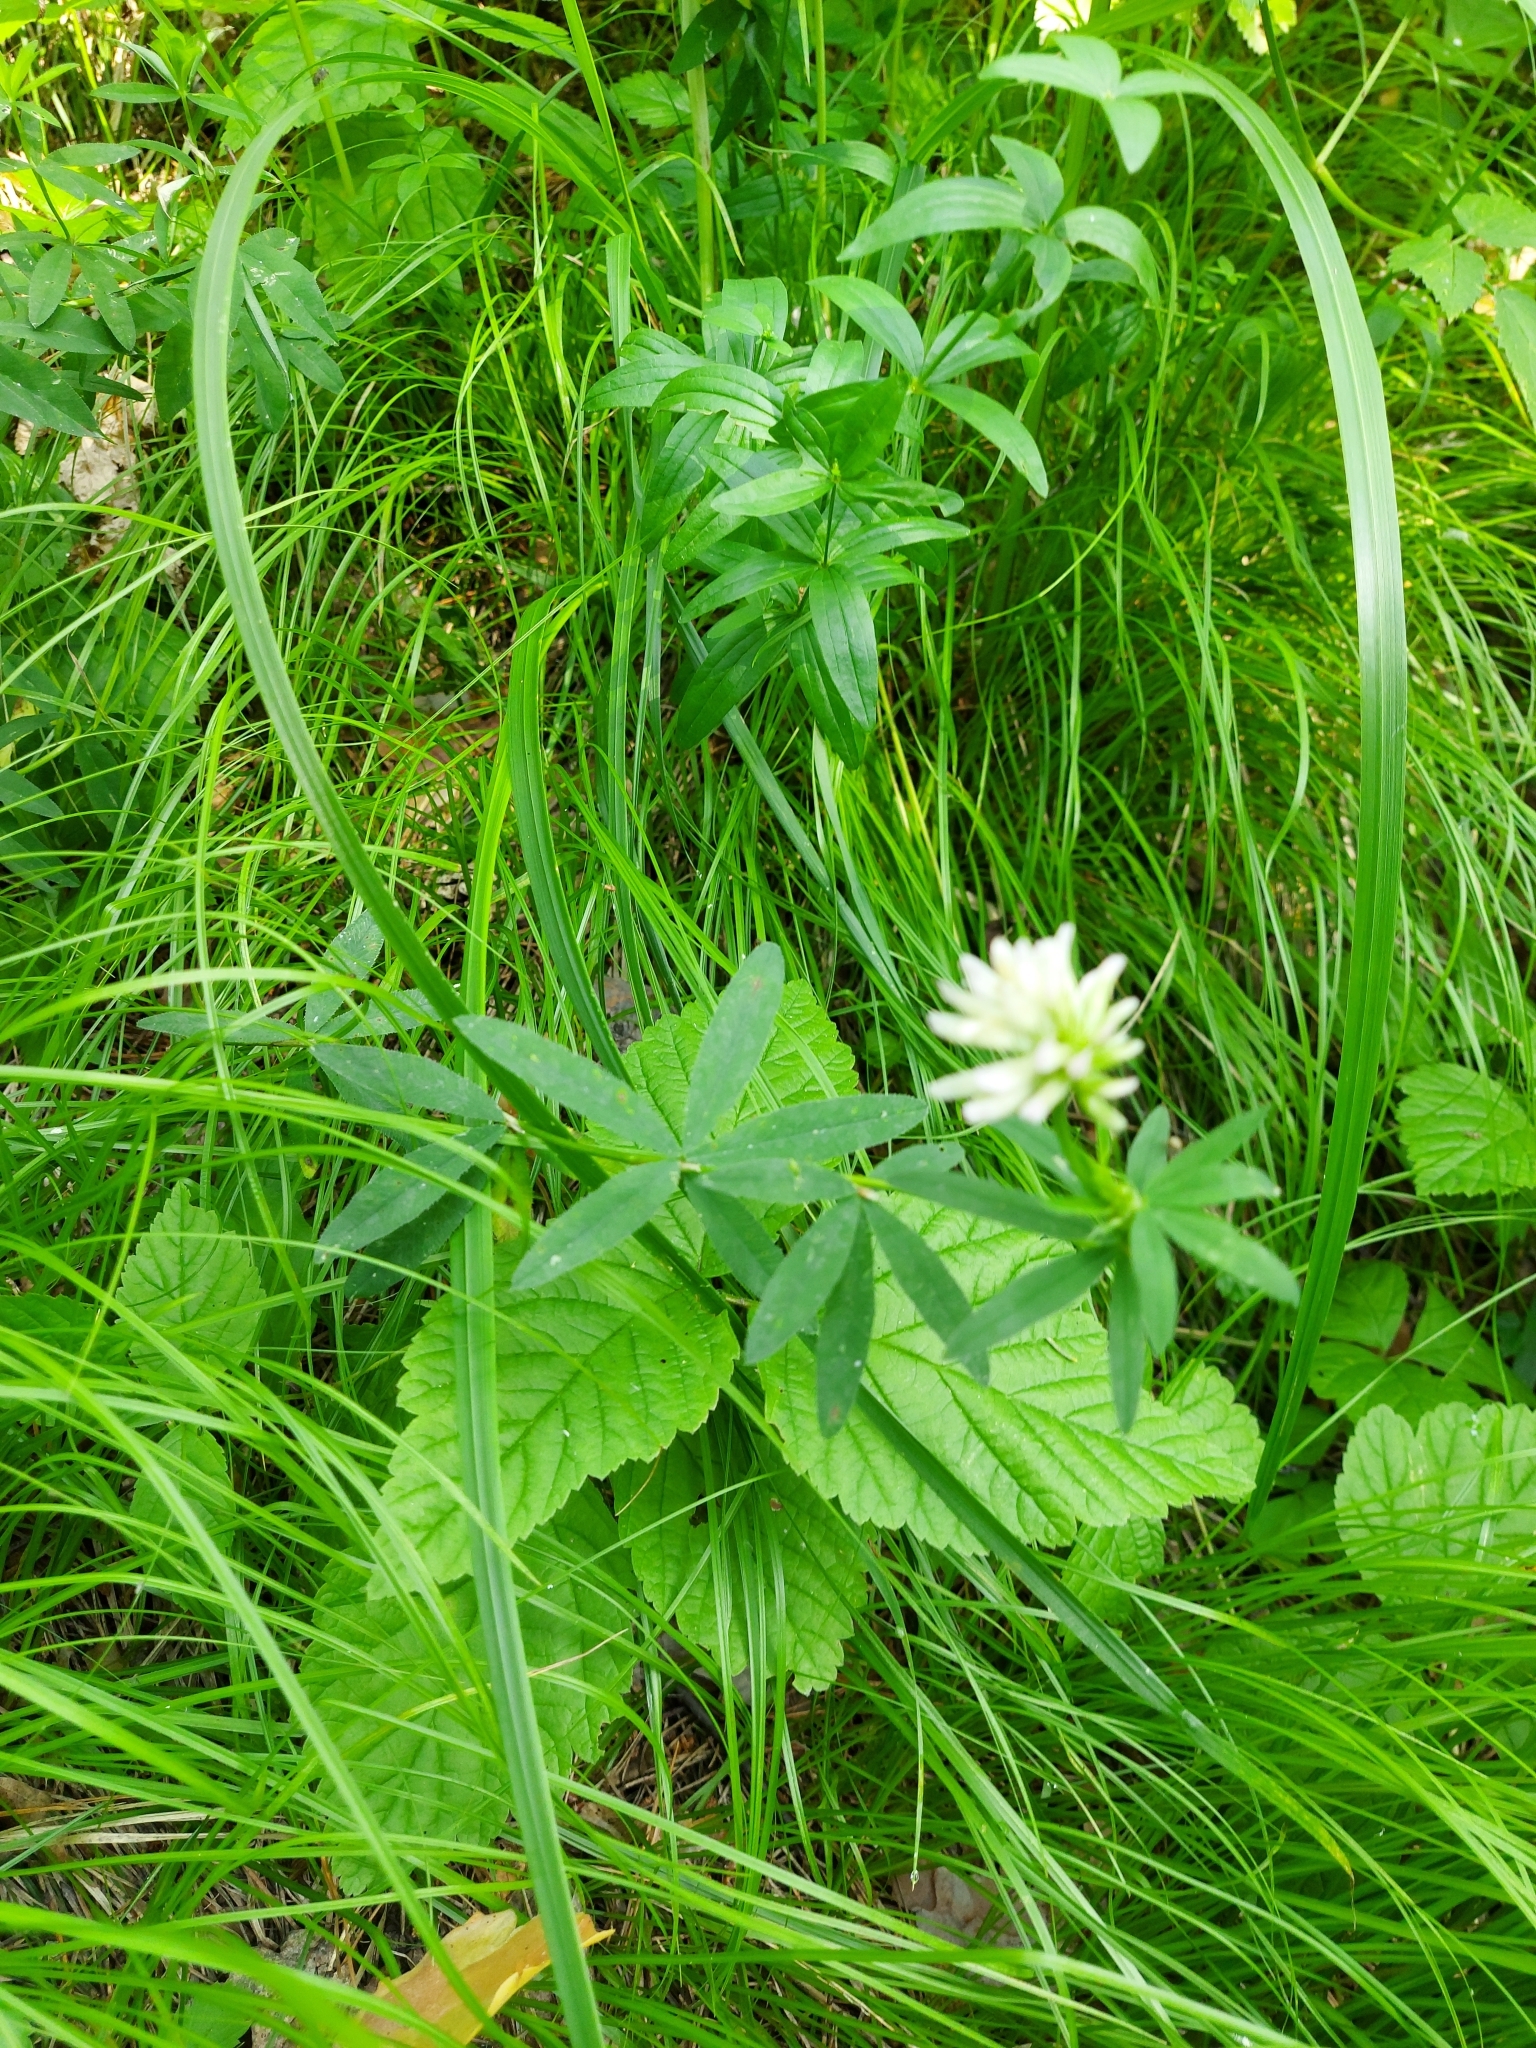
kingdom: Plantae
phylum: Tracheophyta
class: Magnoliopsida
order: Fabales
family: Fabaceae
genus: Trifolium
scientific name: Trifolium lupinaster
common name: Lupine clover
